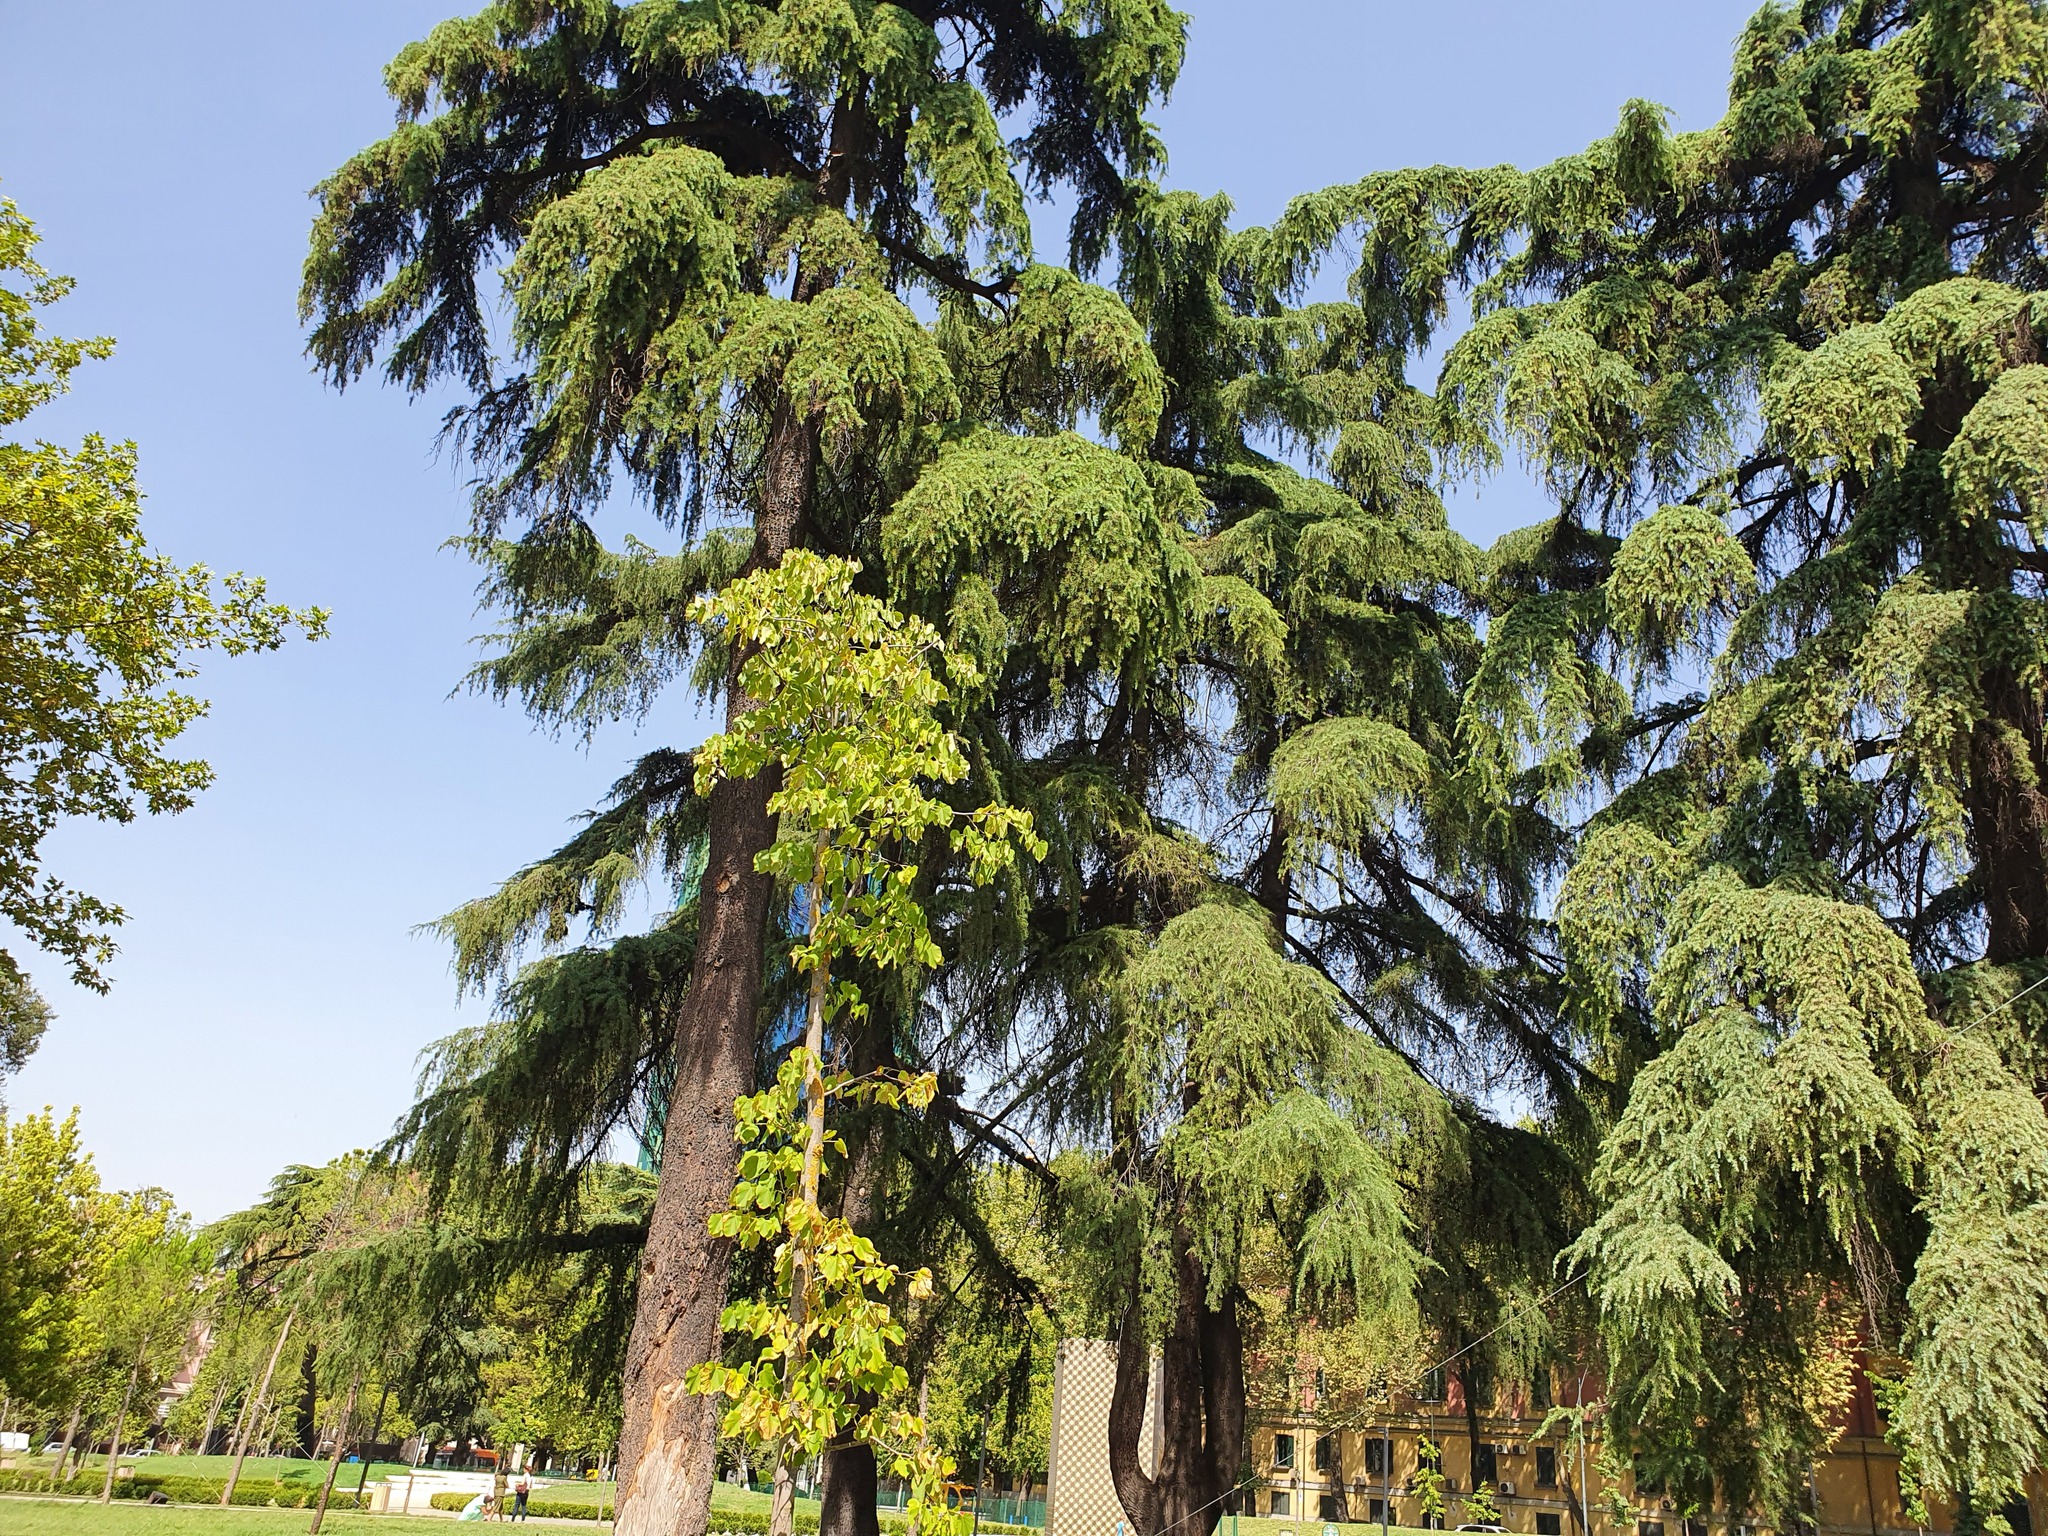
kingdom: Plantae
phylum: Tracheophyta
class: Pinopsida
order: Pinales
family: Pinaceae
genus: Cedrus
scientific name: Cedrus deodara
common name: Deodar
